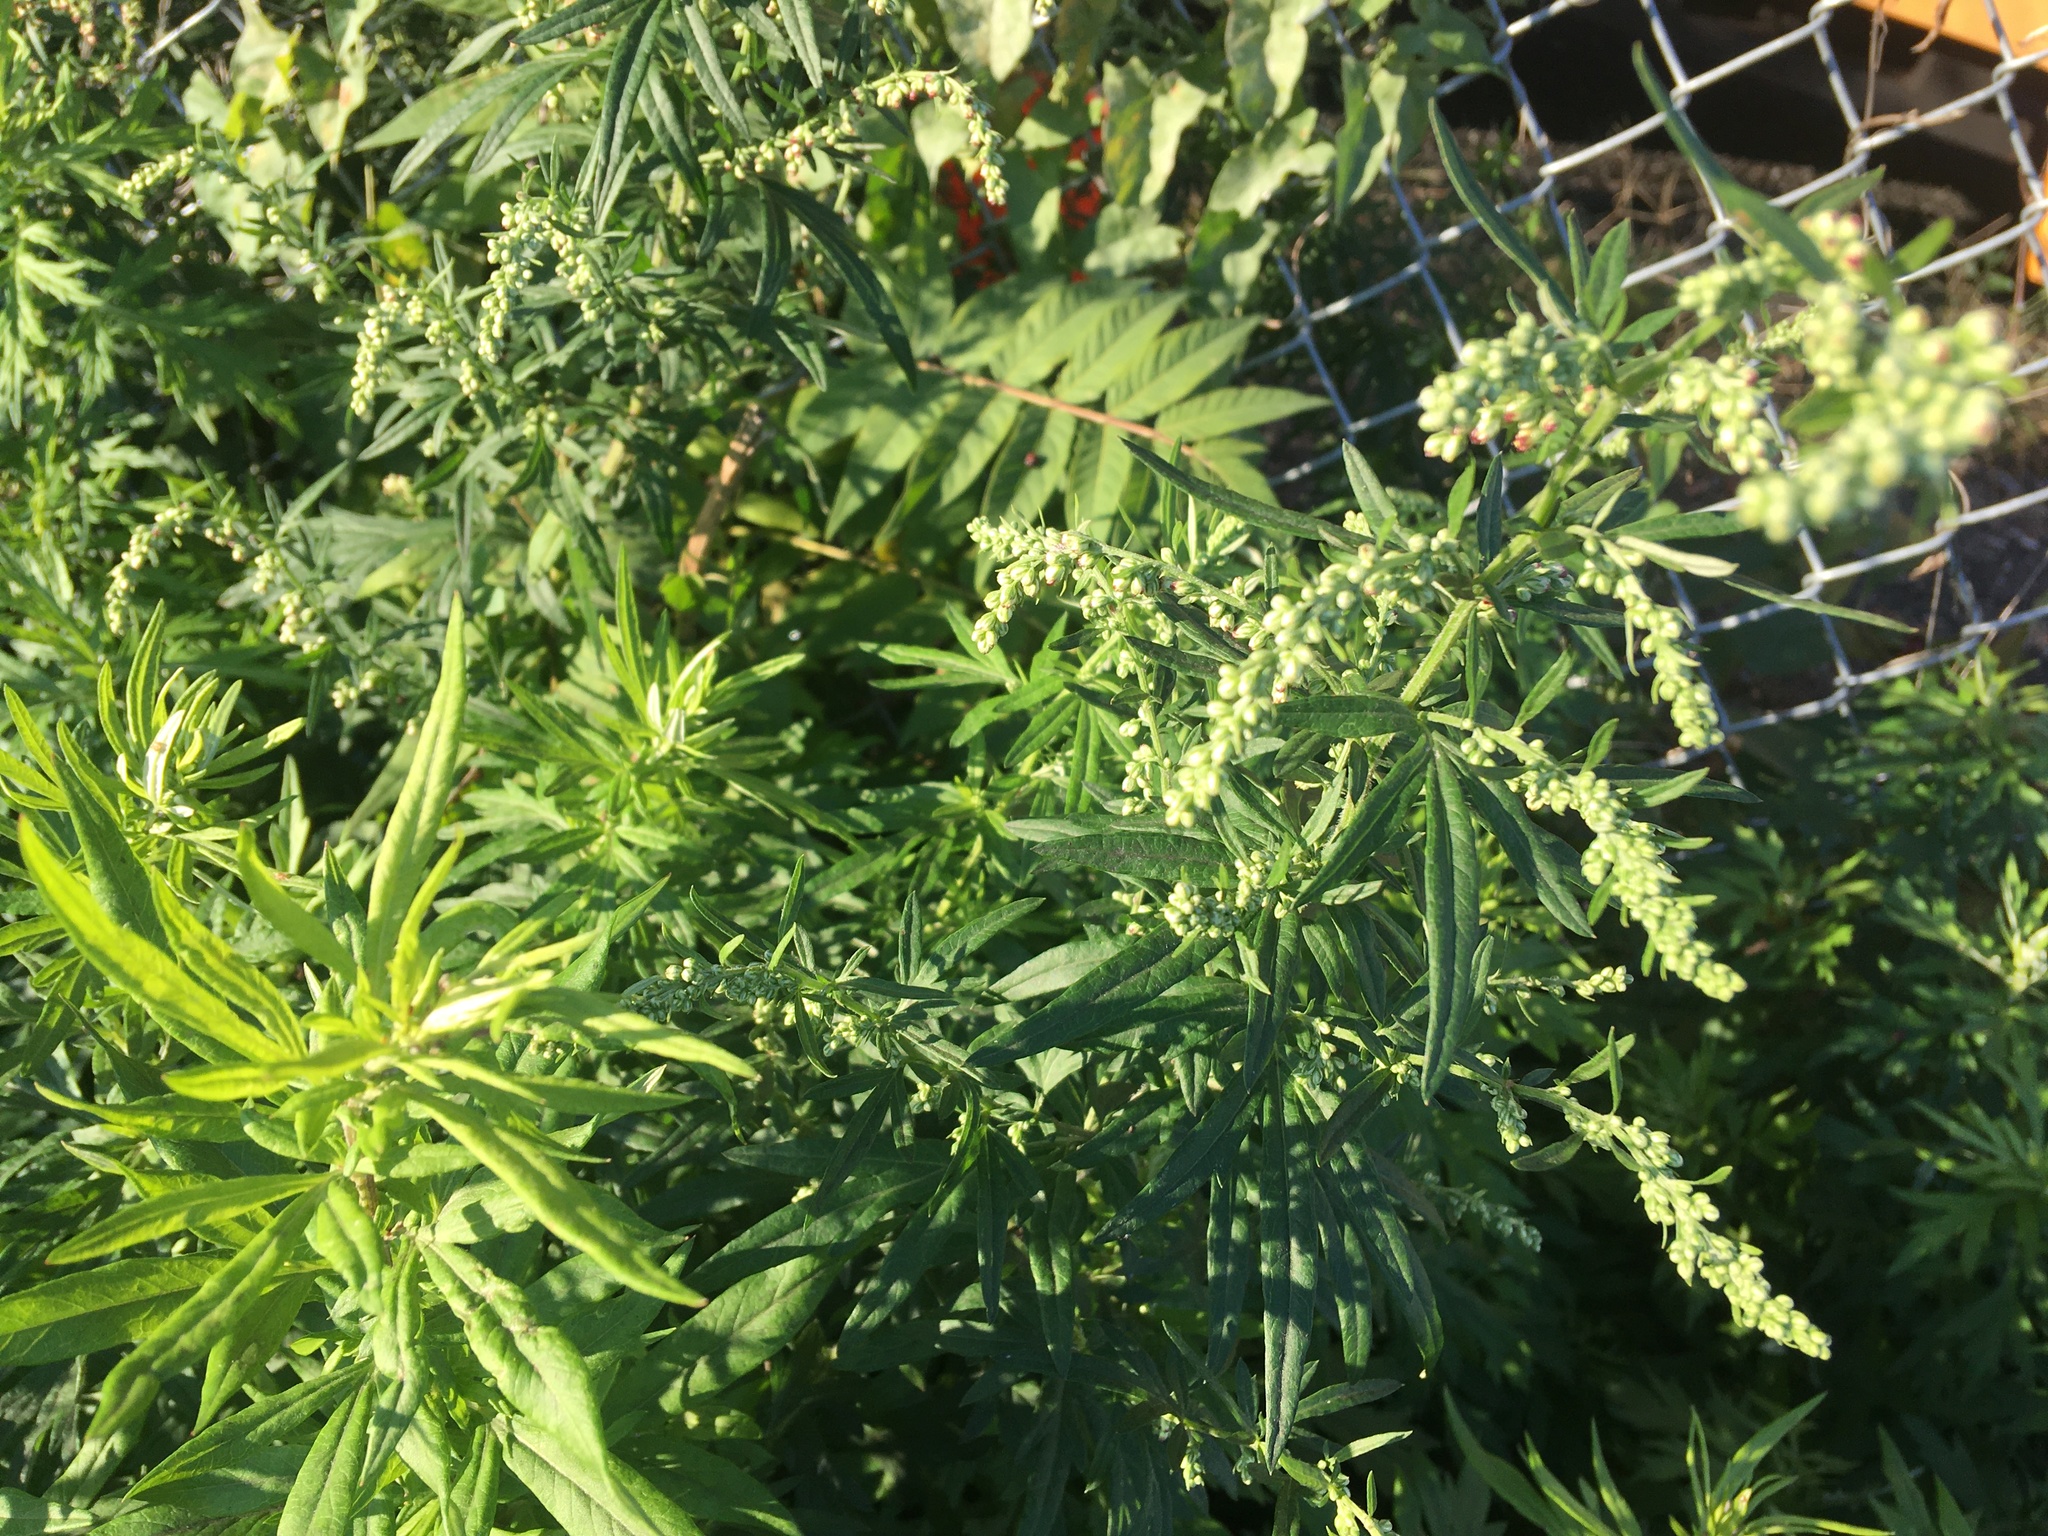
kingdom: Plantae
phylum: Tracheophyta
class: Magnoliopsida
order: Asterales
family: Asteraceae
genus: Artemisia
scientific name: Artemisia vulgaris
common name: Mugwort
